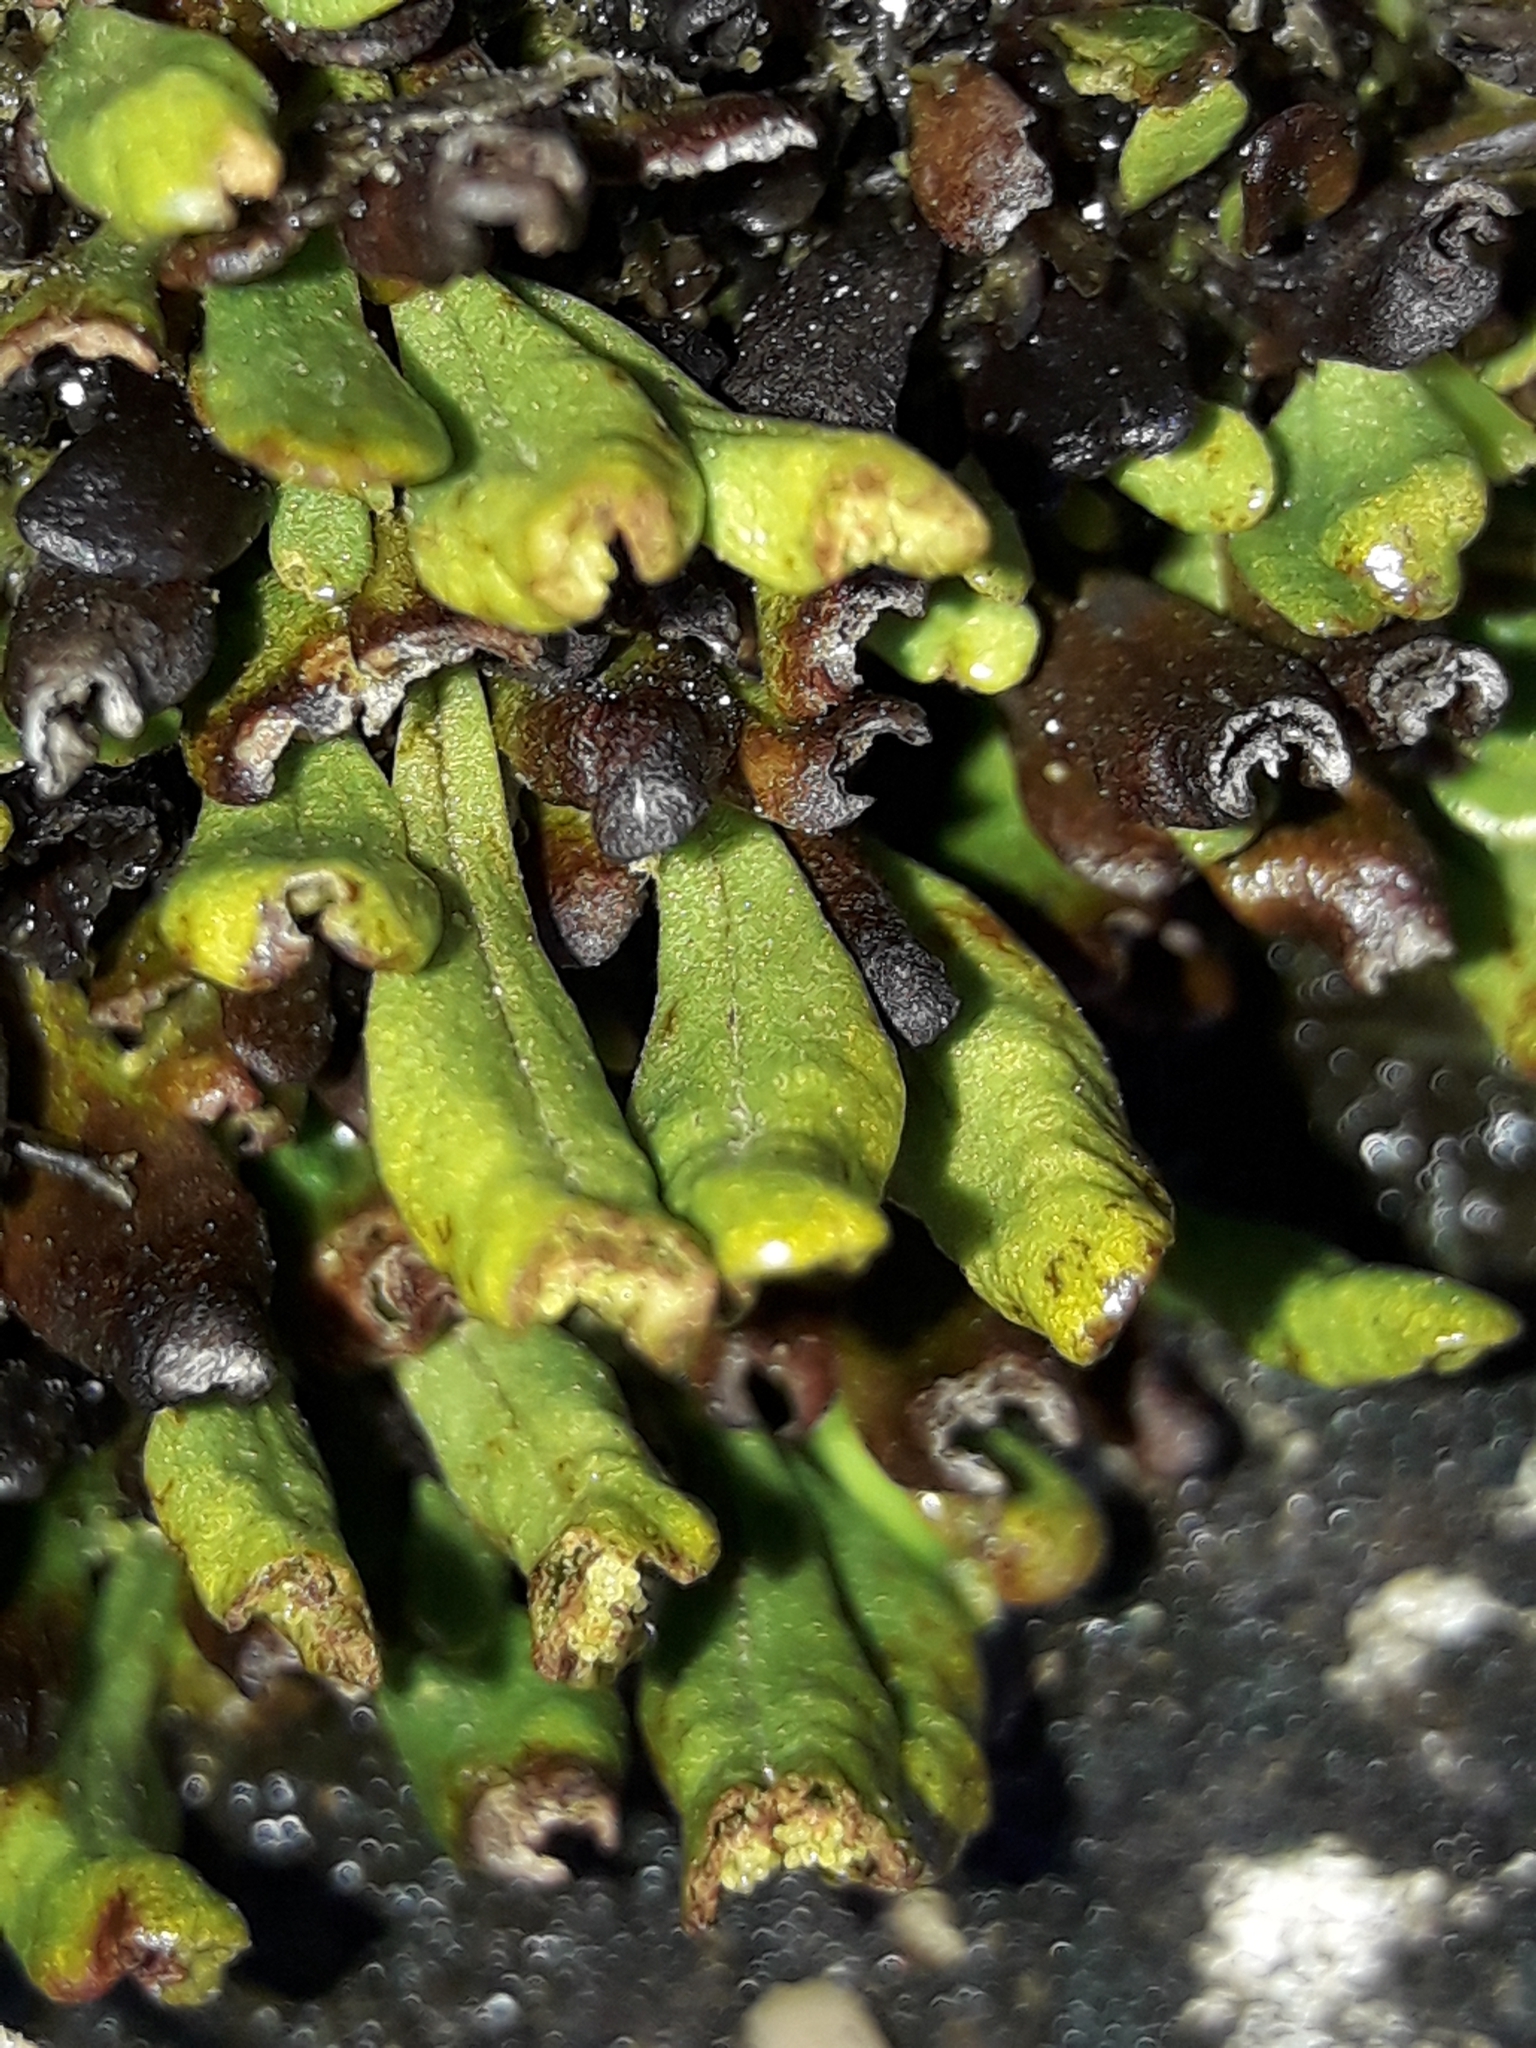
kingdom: Plantae
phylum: Tracheophyta
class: Polypodiopsida
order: Polypodiales
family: Polypodiaceae
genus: Notogrammitis
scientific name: Notogrammitis crassior
